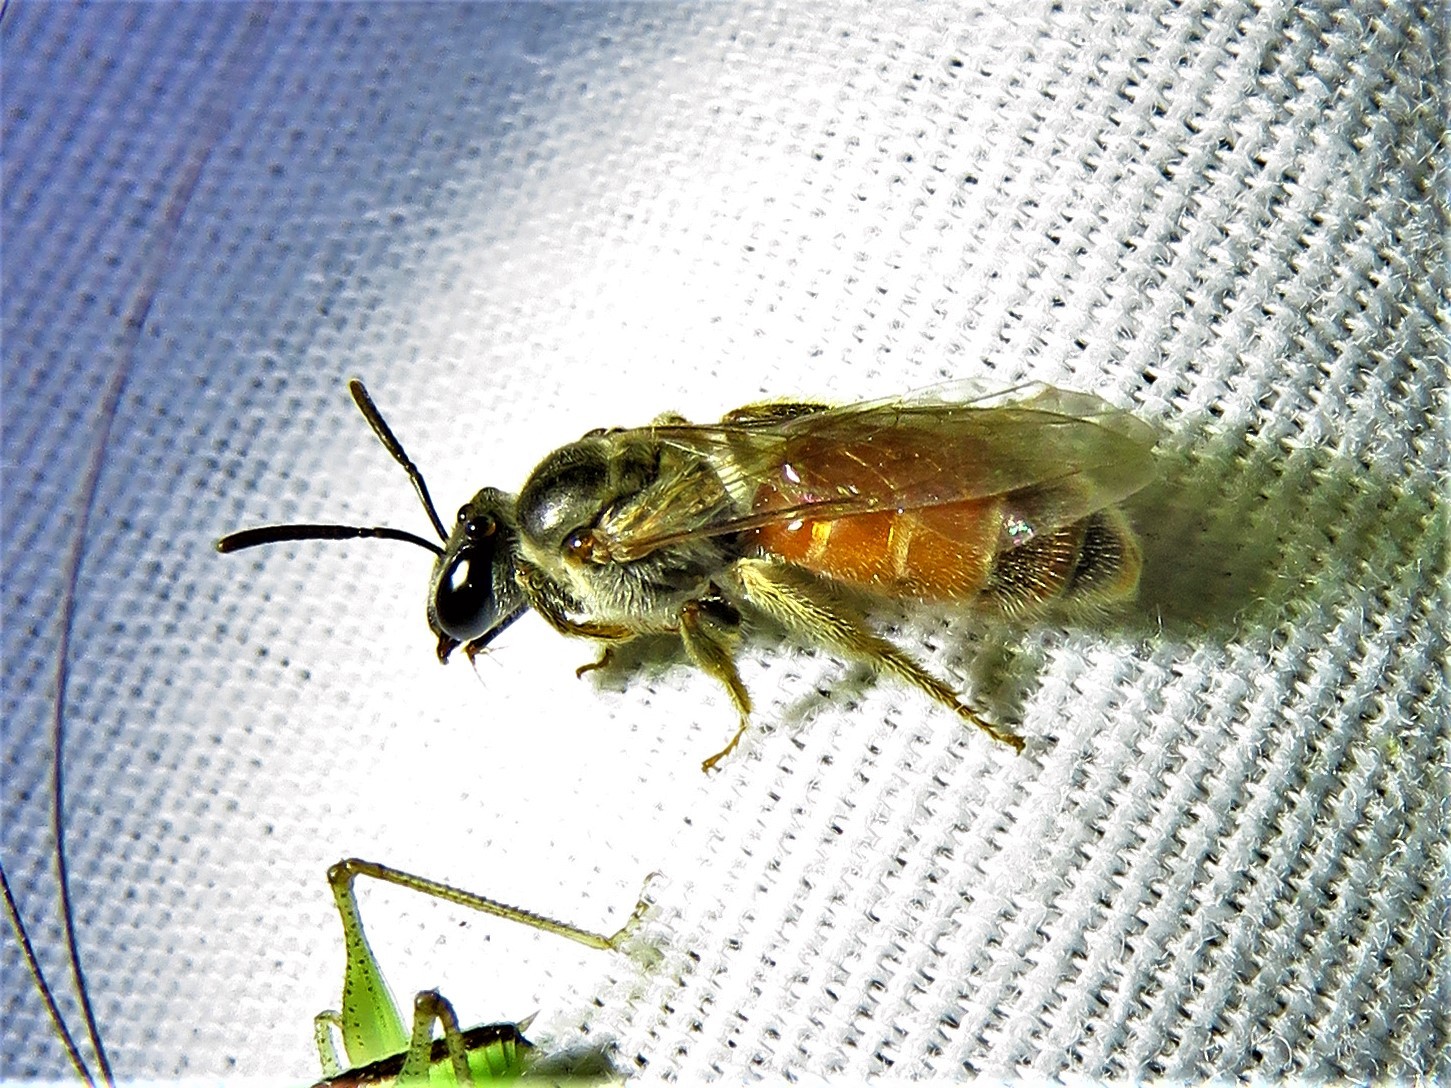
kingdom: Animalia
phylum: Arthropoda
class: Insecta
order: Hymenoptera
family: Halictidae
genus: Lasioglossum
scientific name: Lasioglossum texanum
